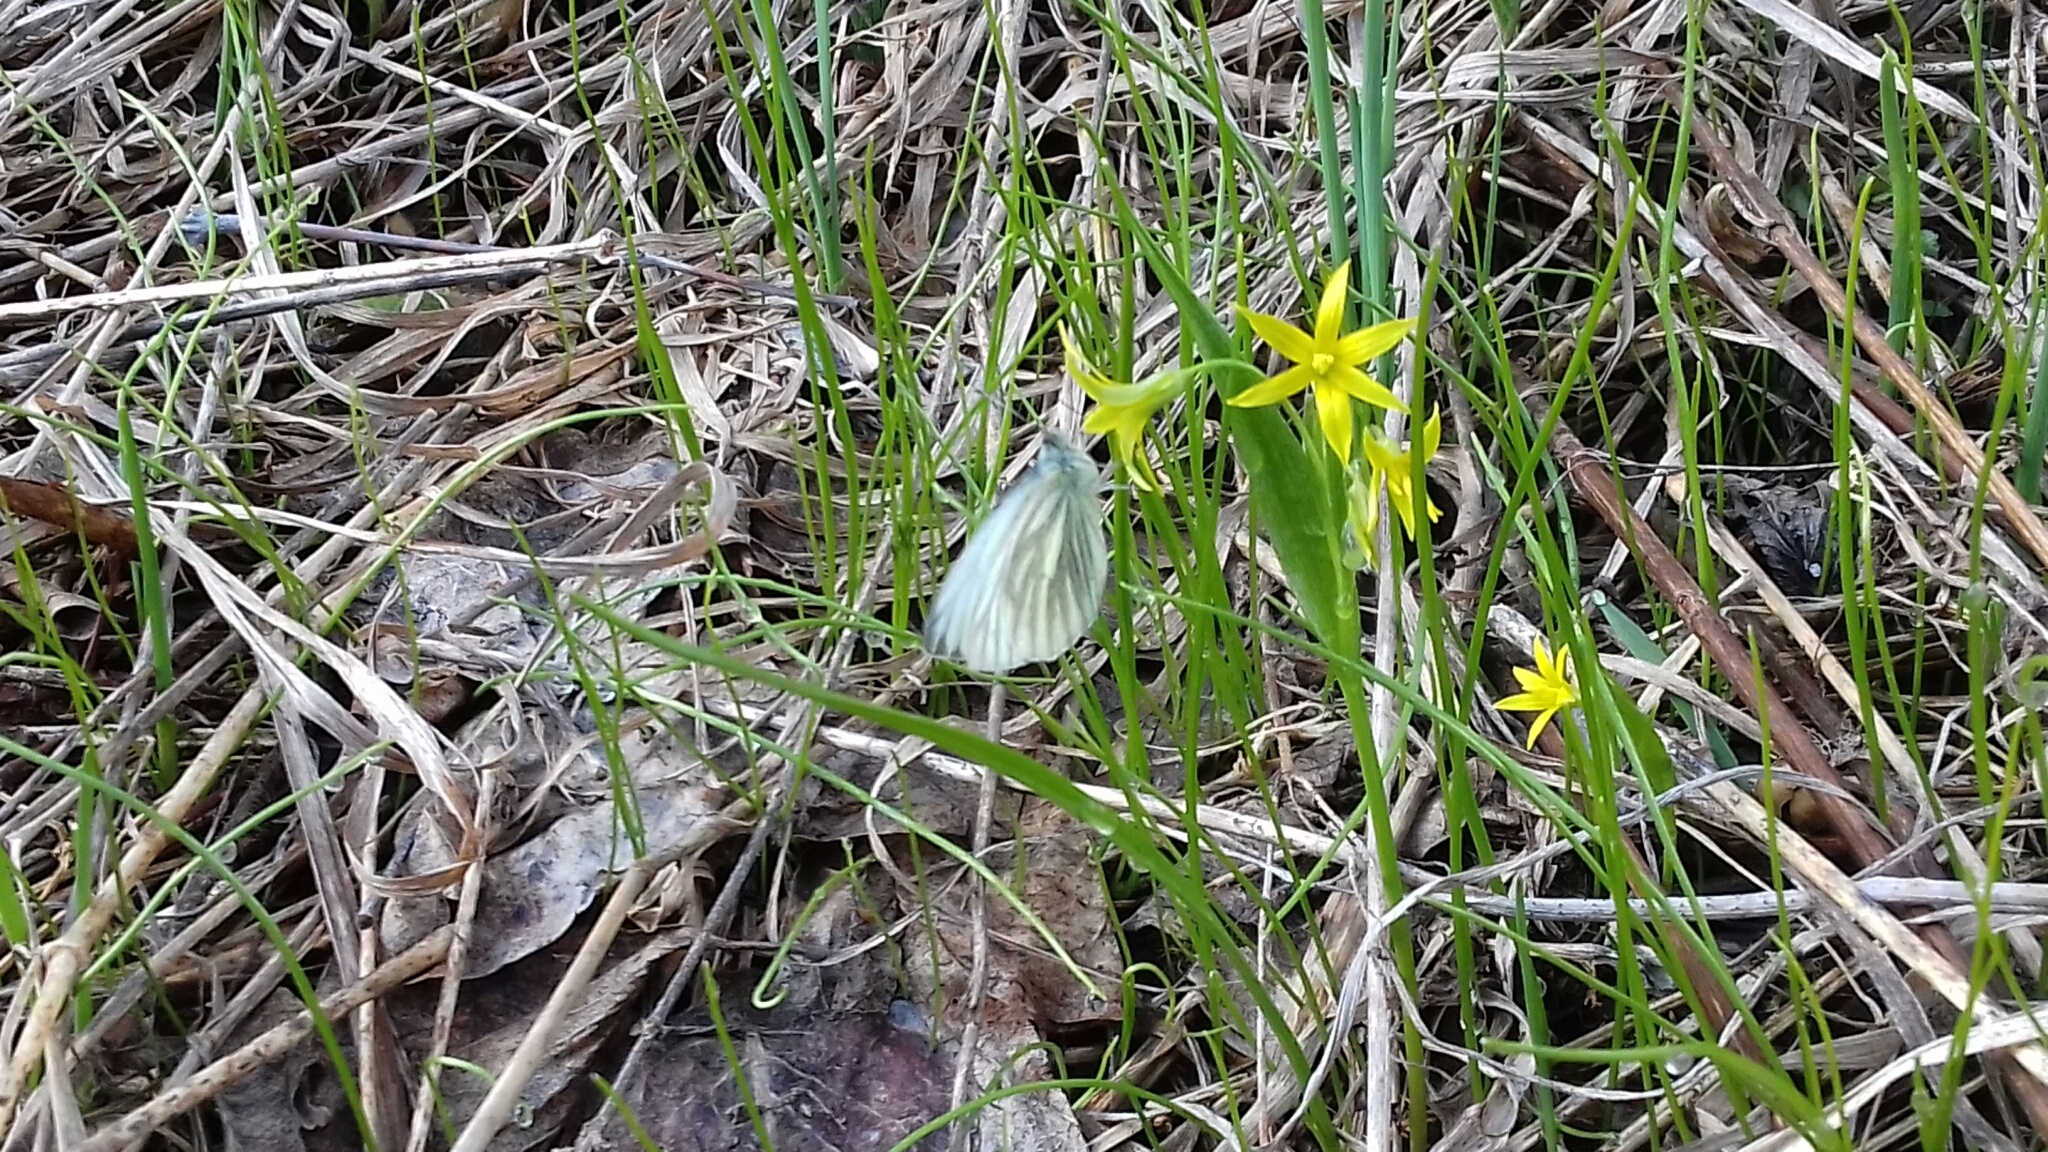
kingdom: Animalia
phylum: Arthropoda
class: Insecta
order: Lepidoptera
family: Pieridae
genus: Pieris
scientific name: Pieris napi
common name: Green-veined white
